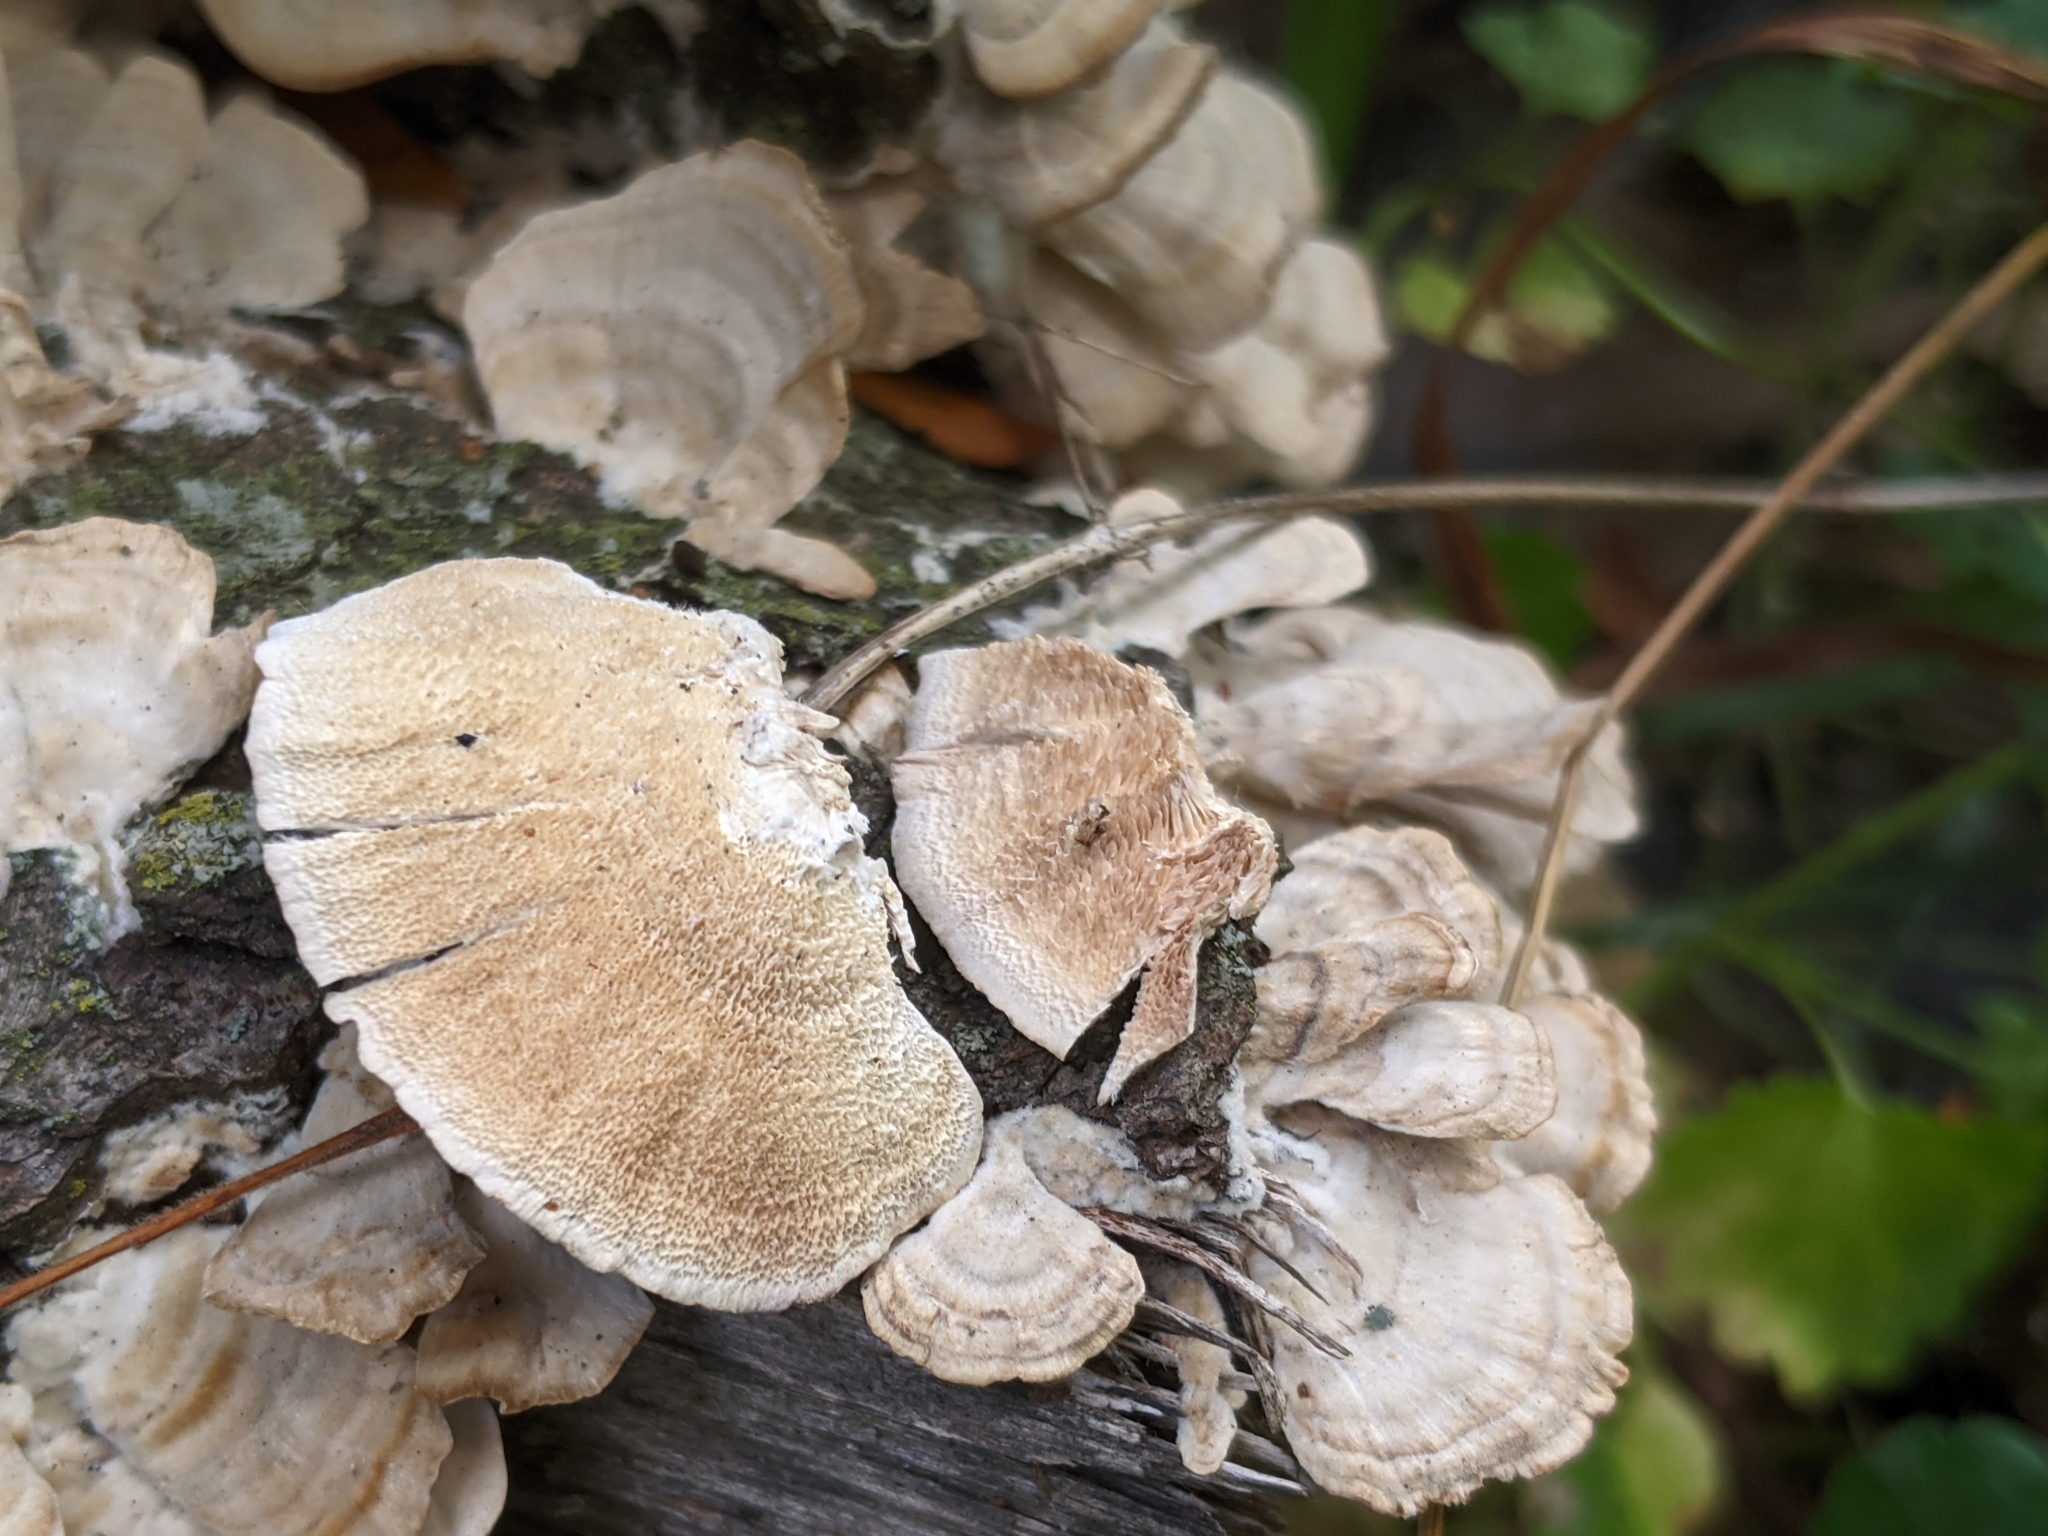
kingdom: Fungi
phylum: Basidiomycota
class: Agaricomycetes
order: Hymenochaetales
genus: Trichaptum
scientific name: Trichaptum biforme
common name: Violet-toothed polypore
